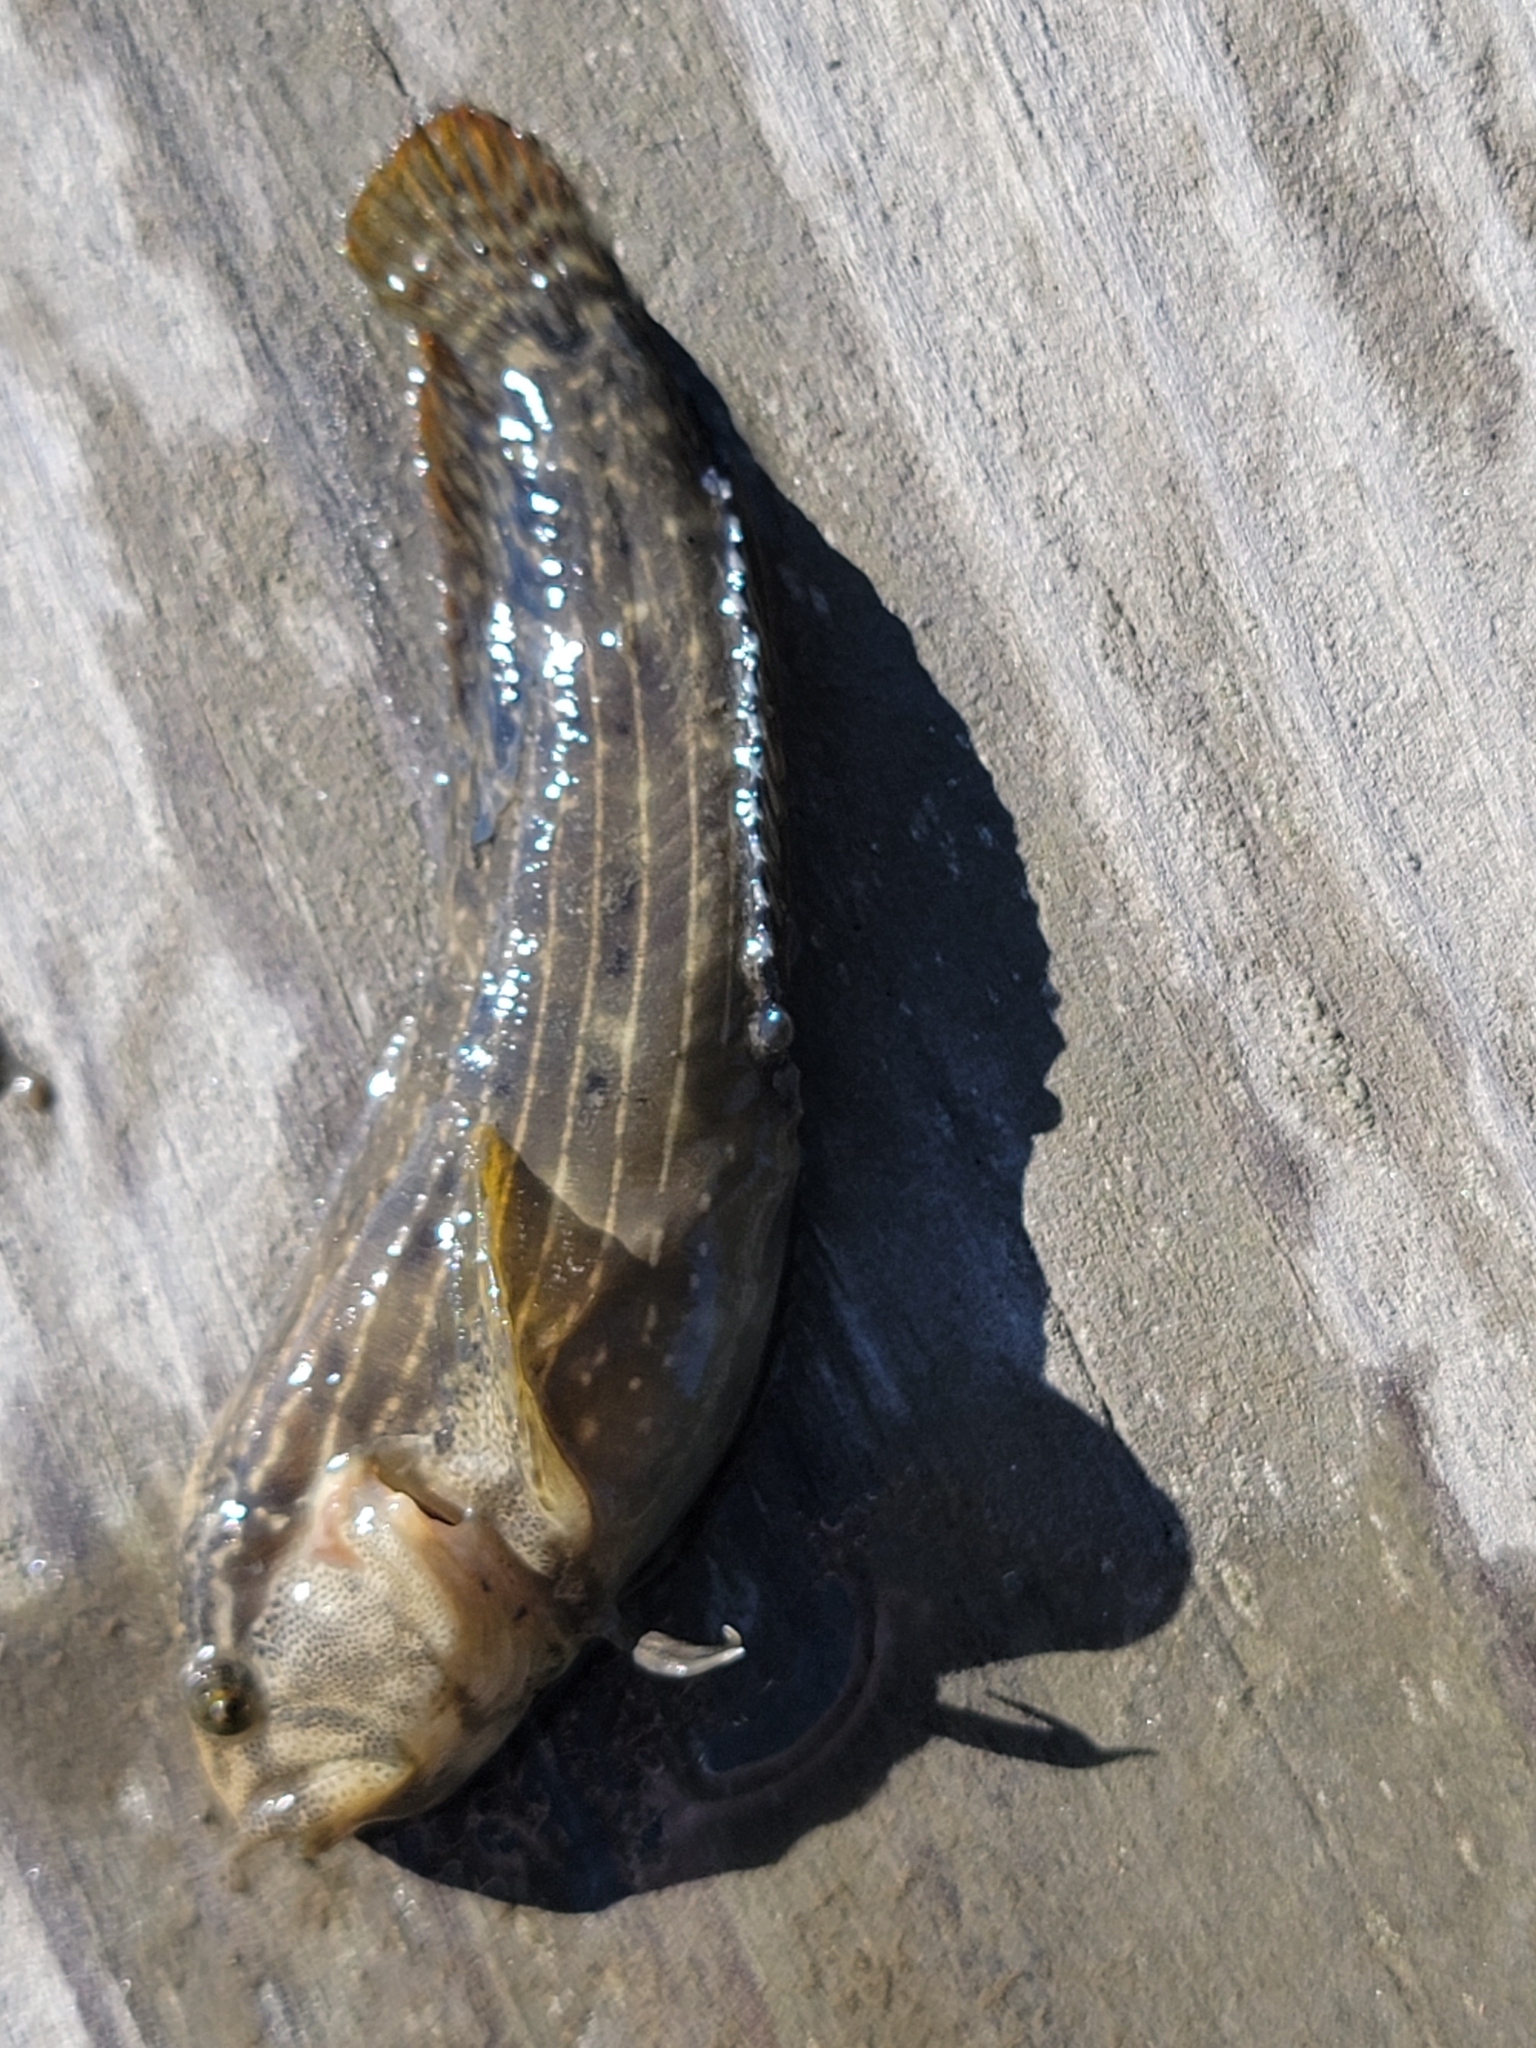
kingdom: Animalia
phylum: Chordata
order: Perciformes
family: Blenniidae
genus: Chasmodes
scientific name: Chasmodes bosquianus
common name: Striped blenny
